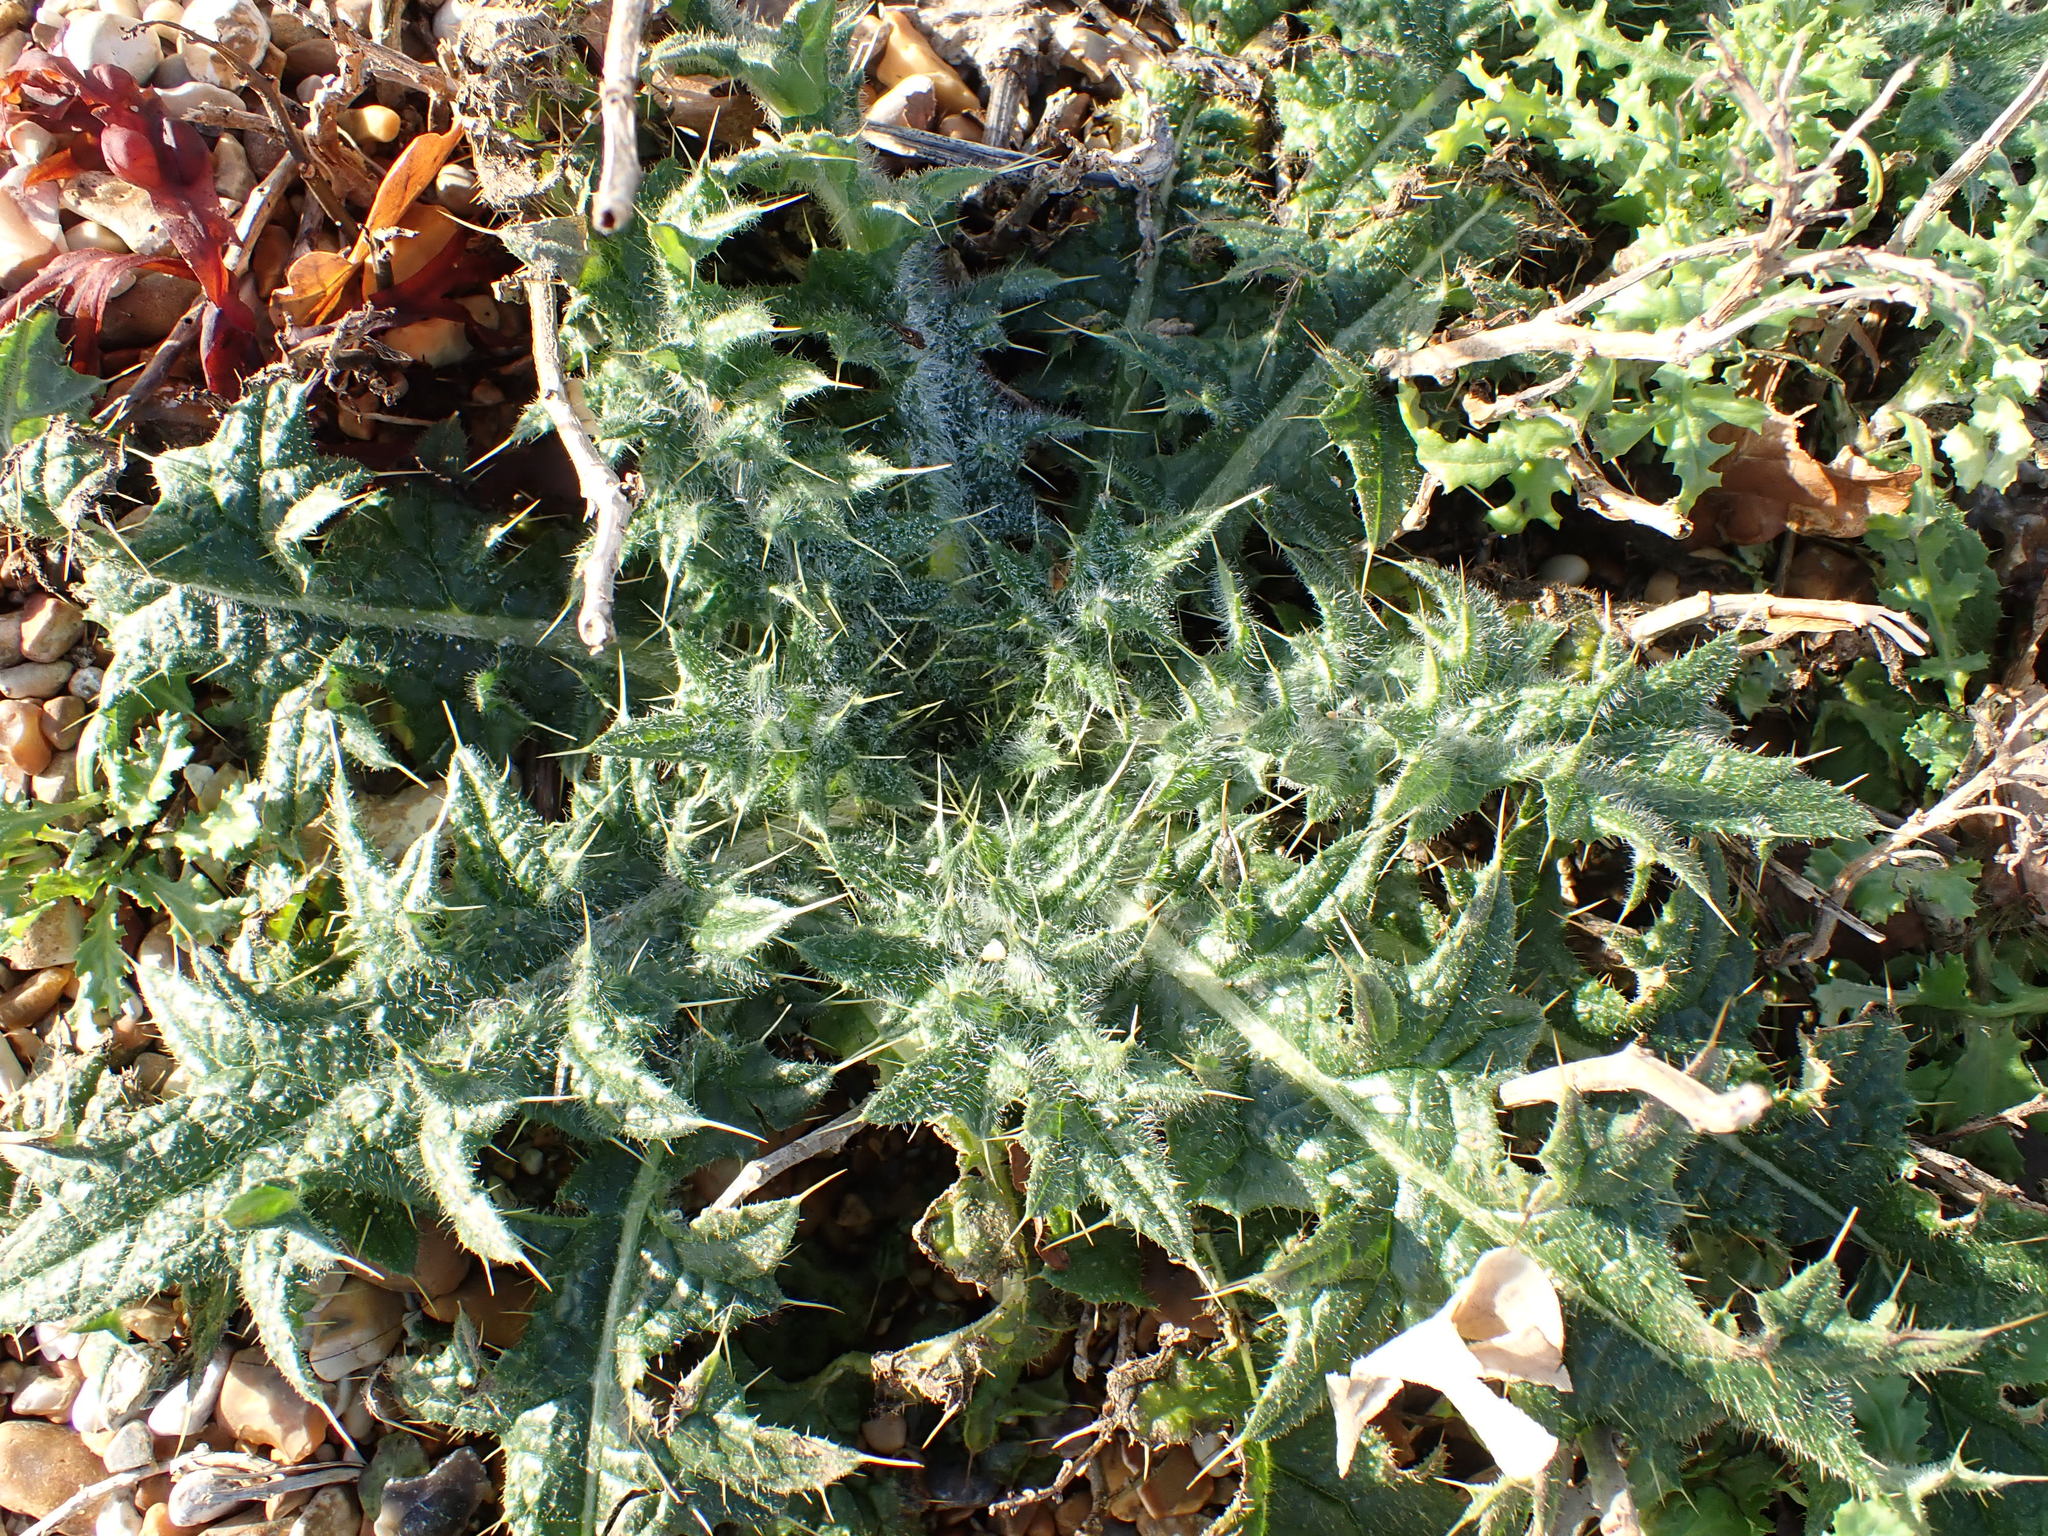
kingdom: Plantae
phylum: Tracheophyta
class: Magnoliopsida
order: Asterales
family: Asteraceae
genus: Cirsium
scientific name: Cirsium vulgare
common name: Bull thistle
